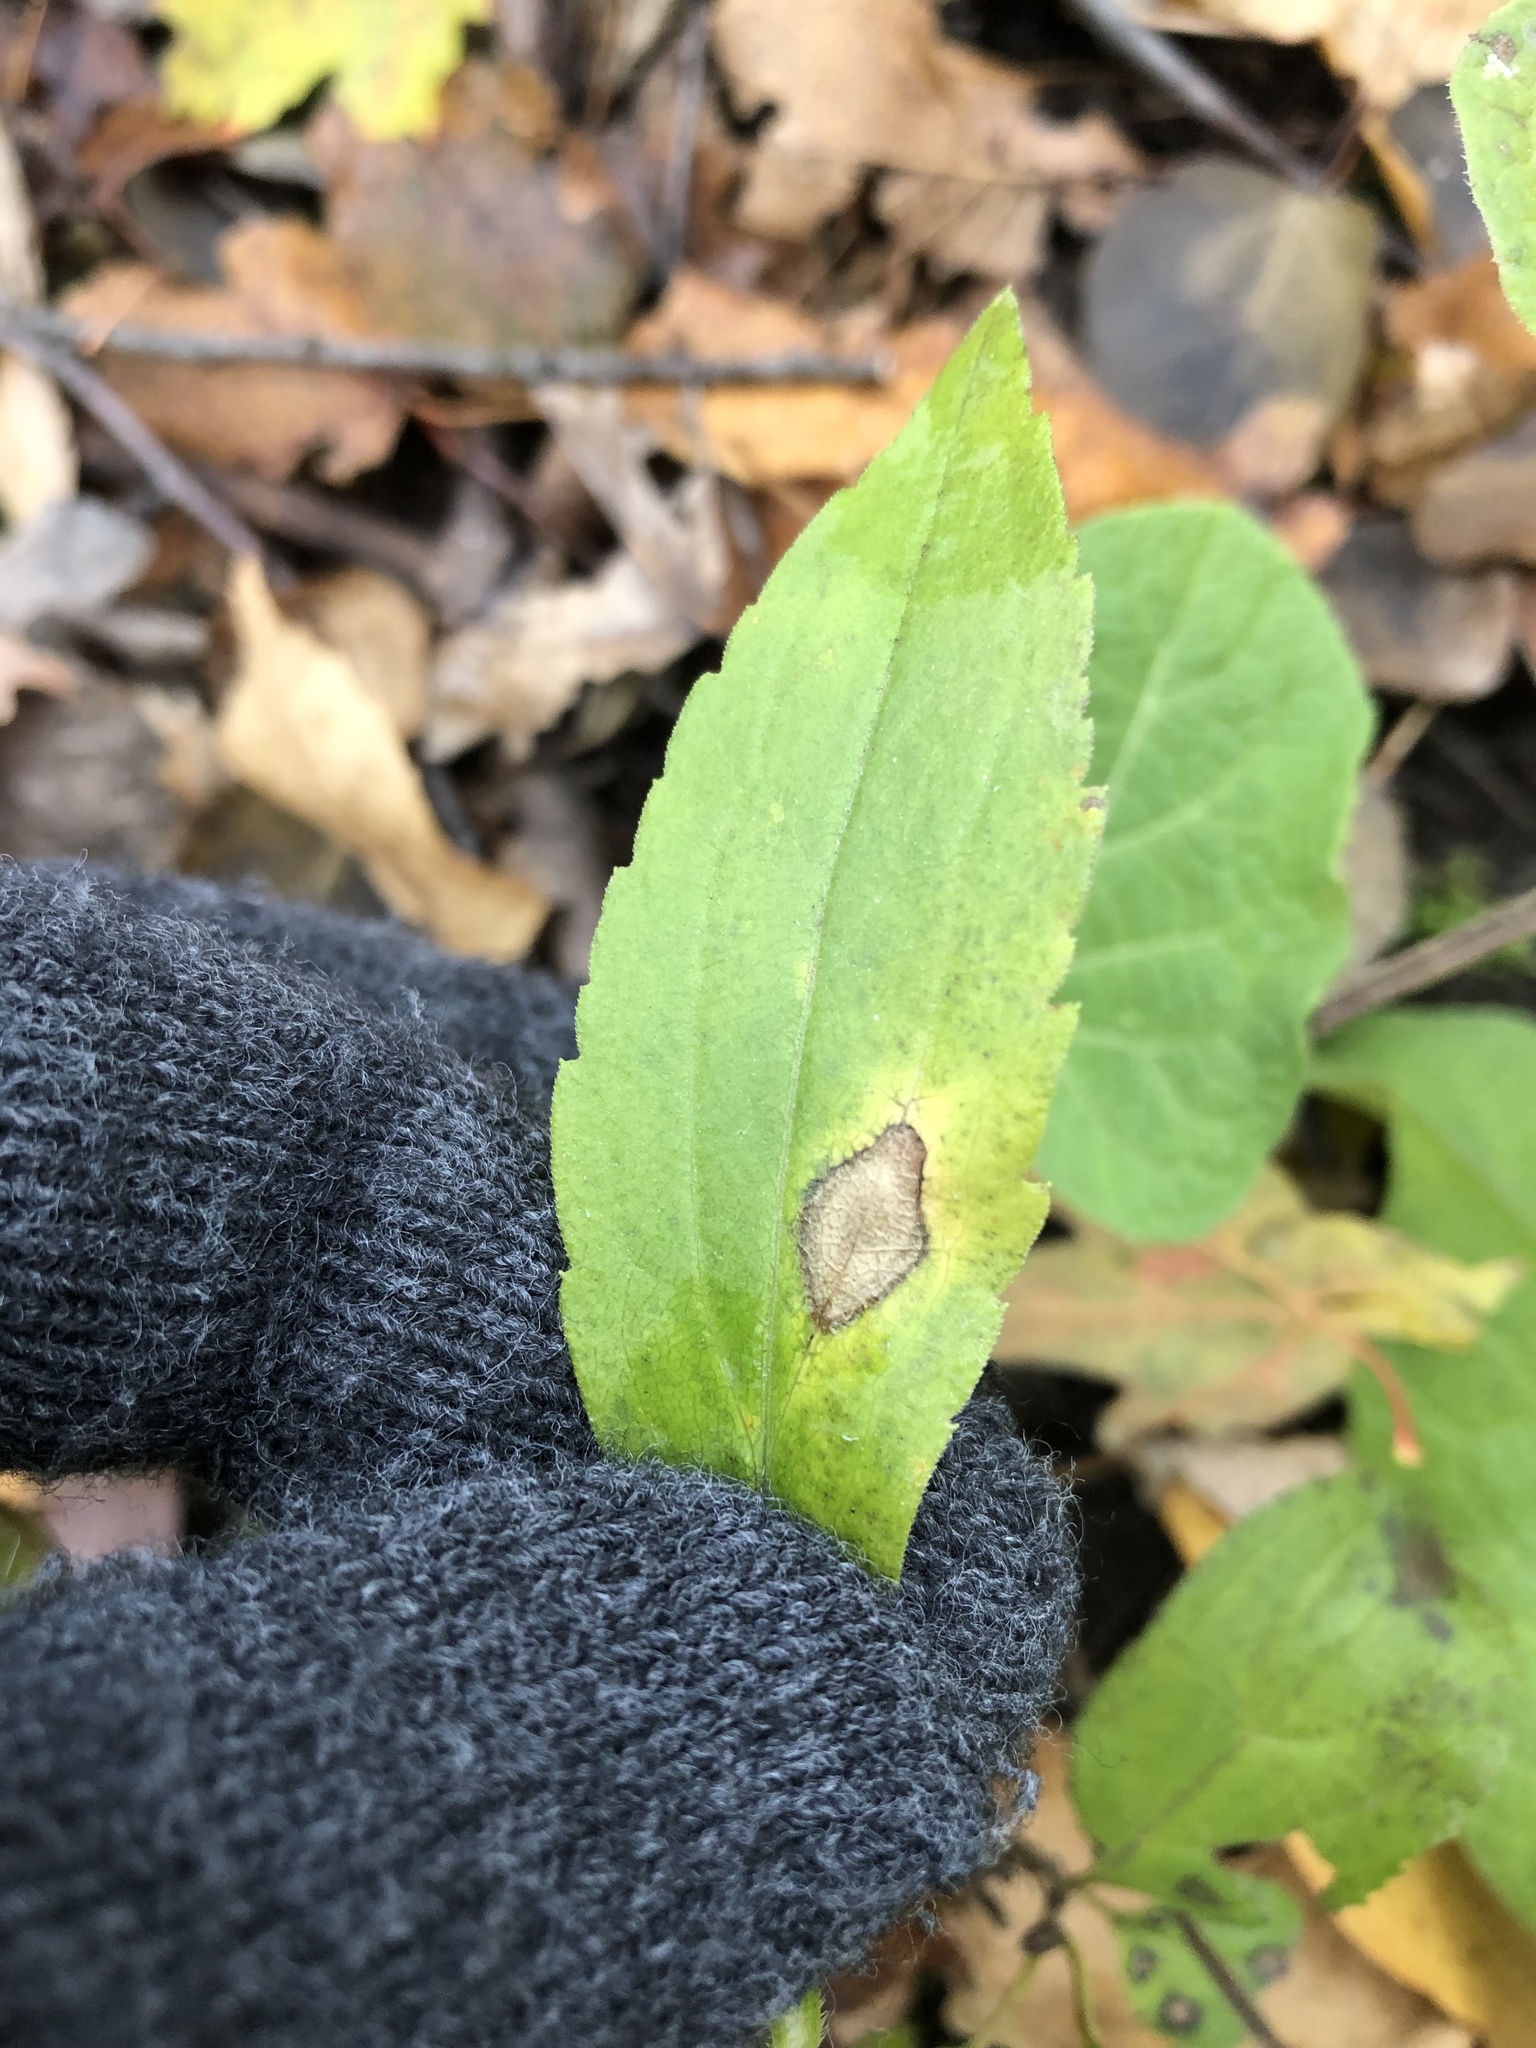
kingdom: Animalia
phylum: Arthropoda
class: Insecta
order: Diptera
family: Cecidomyiidae
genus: Asteromyia
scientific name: Asteromyia carbonifera
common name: Carbonifera goldenrod gall midge
